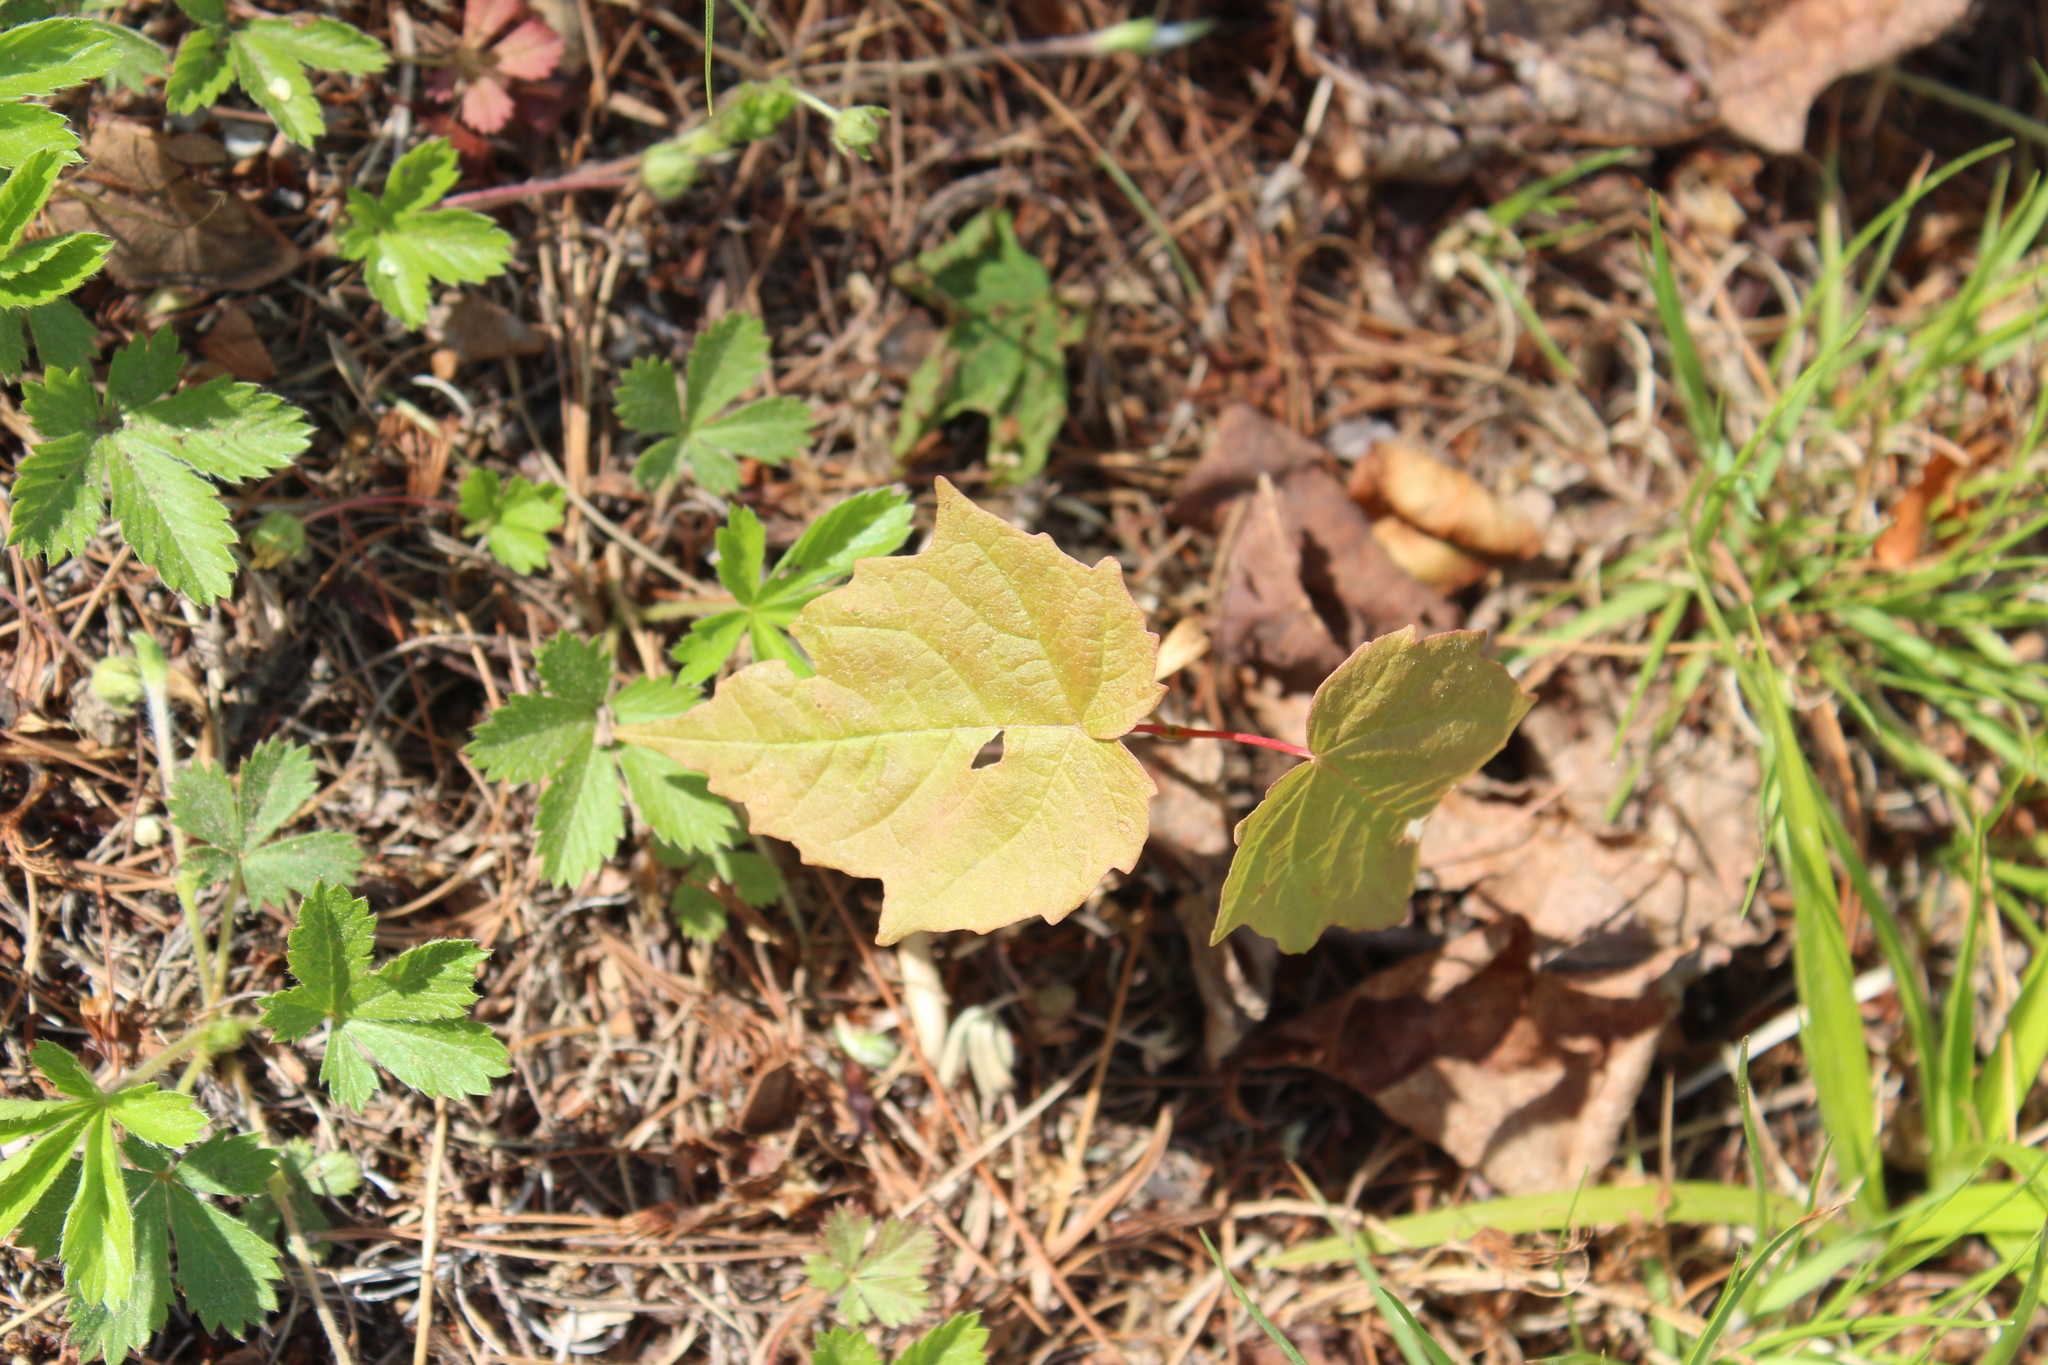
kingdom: Plantae
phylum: Tracheophyta
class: Magnoliopsida
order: Sapindales
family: Sapindaceae
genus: Acer
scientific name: Acer rubrum
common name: Red maple
